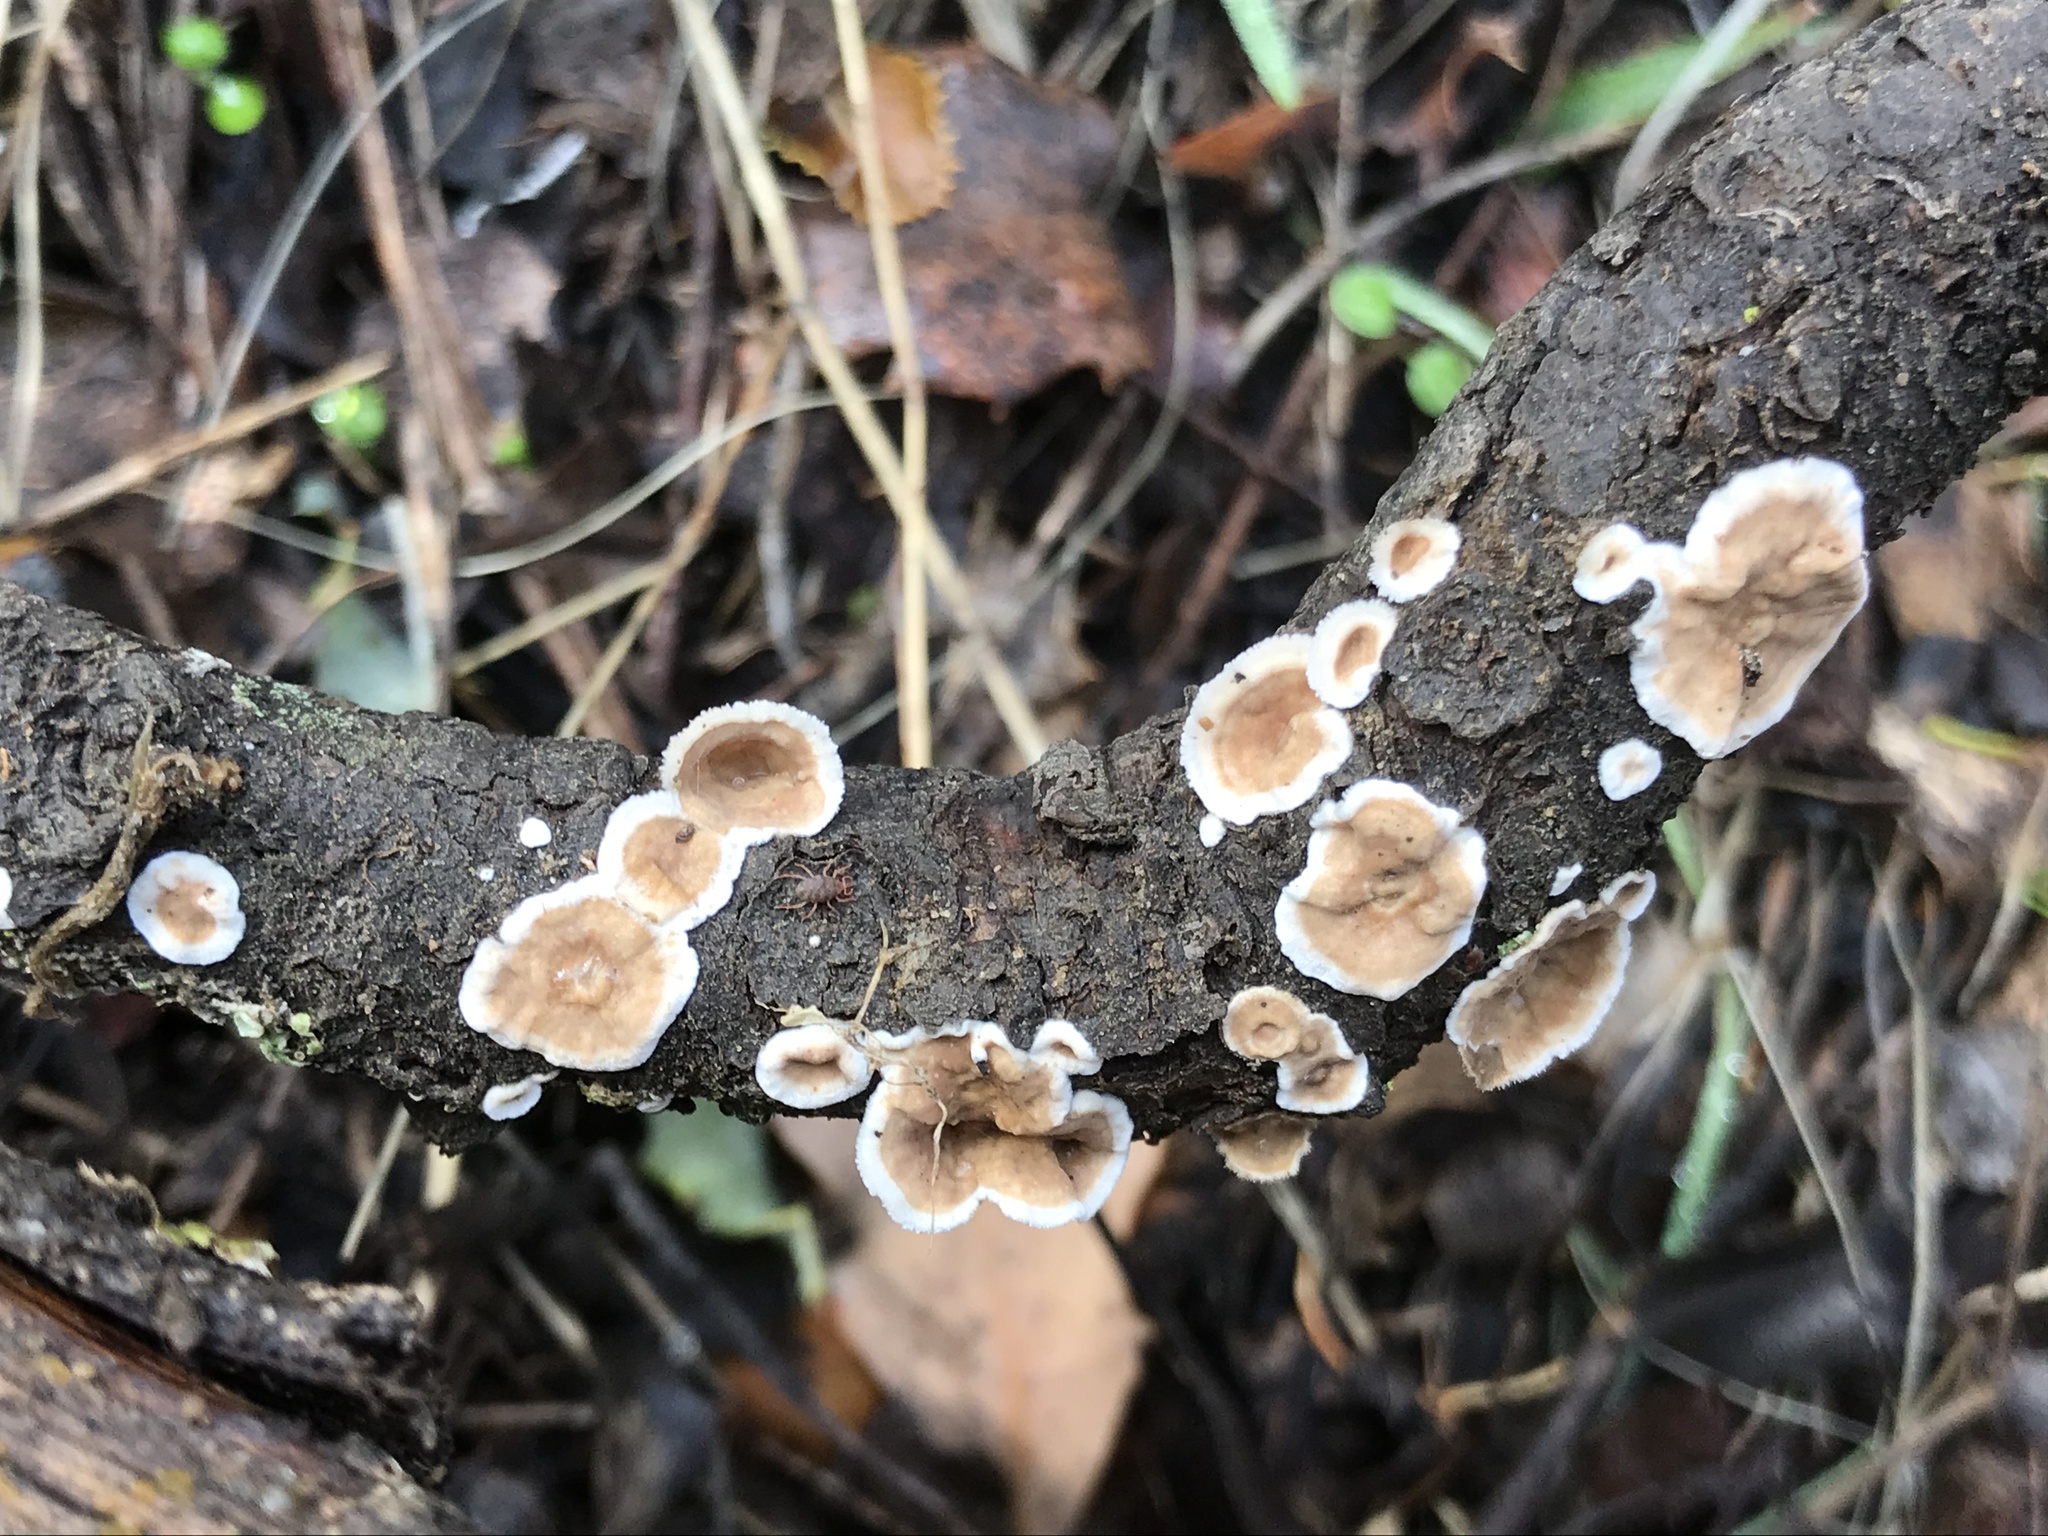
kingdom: Fungi
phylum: Basidiomycota
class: Agaricomycetes
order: Russulales
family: Stereaceae
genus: Stereum
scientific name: Stereum ochraceoflavum
